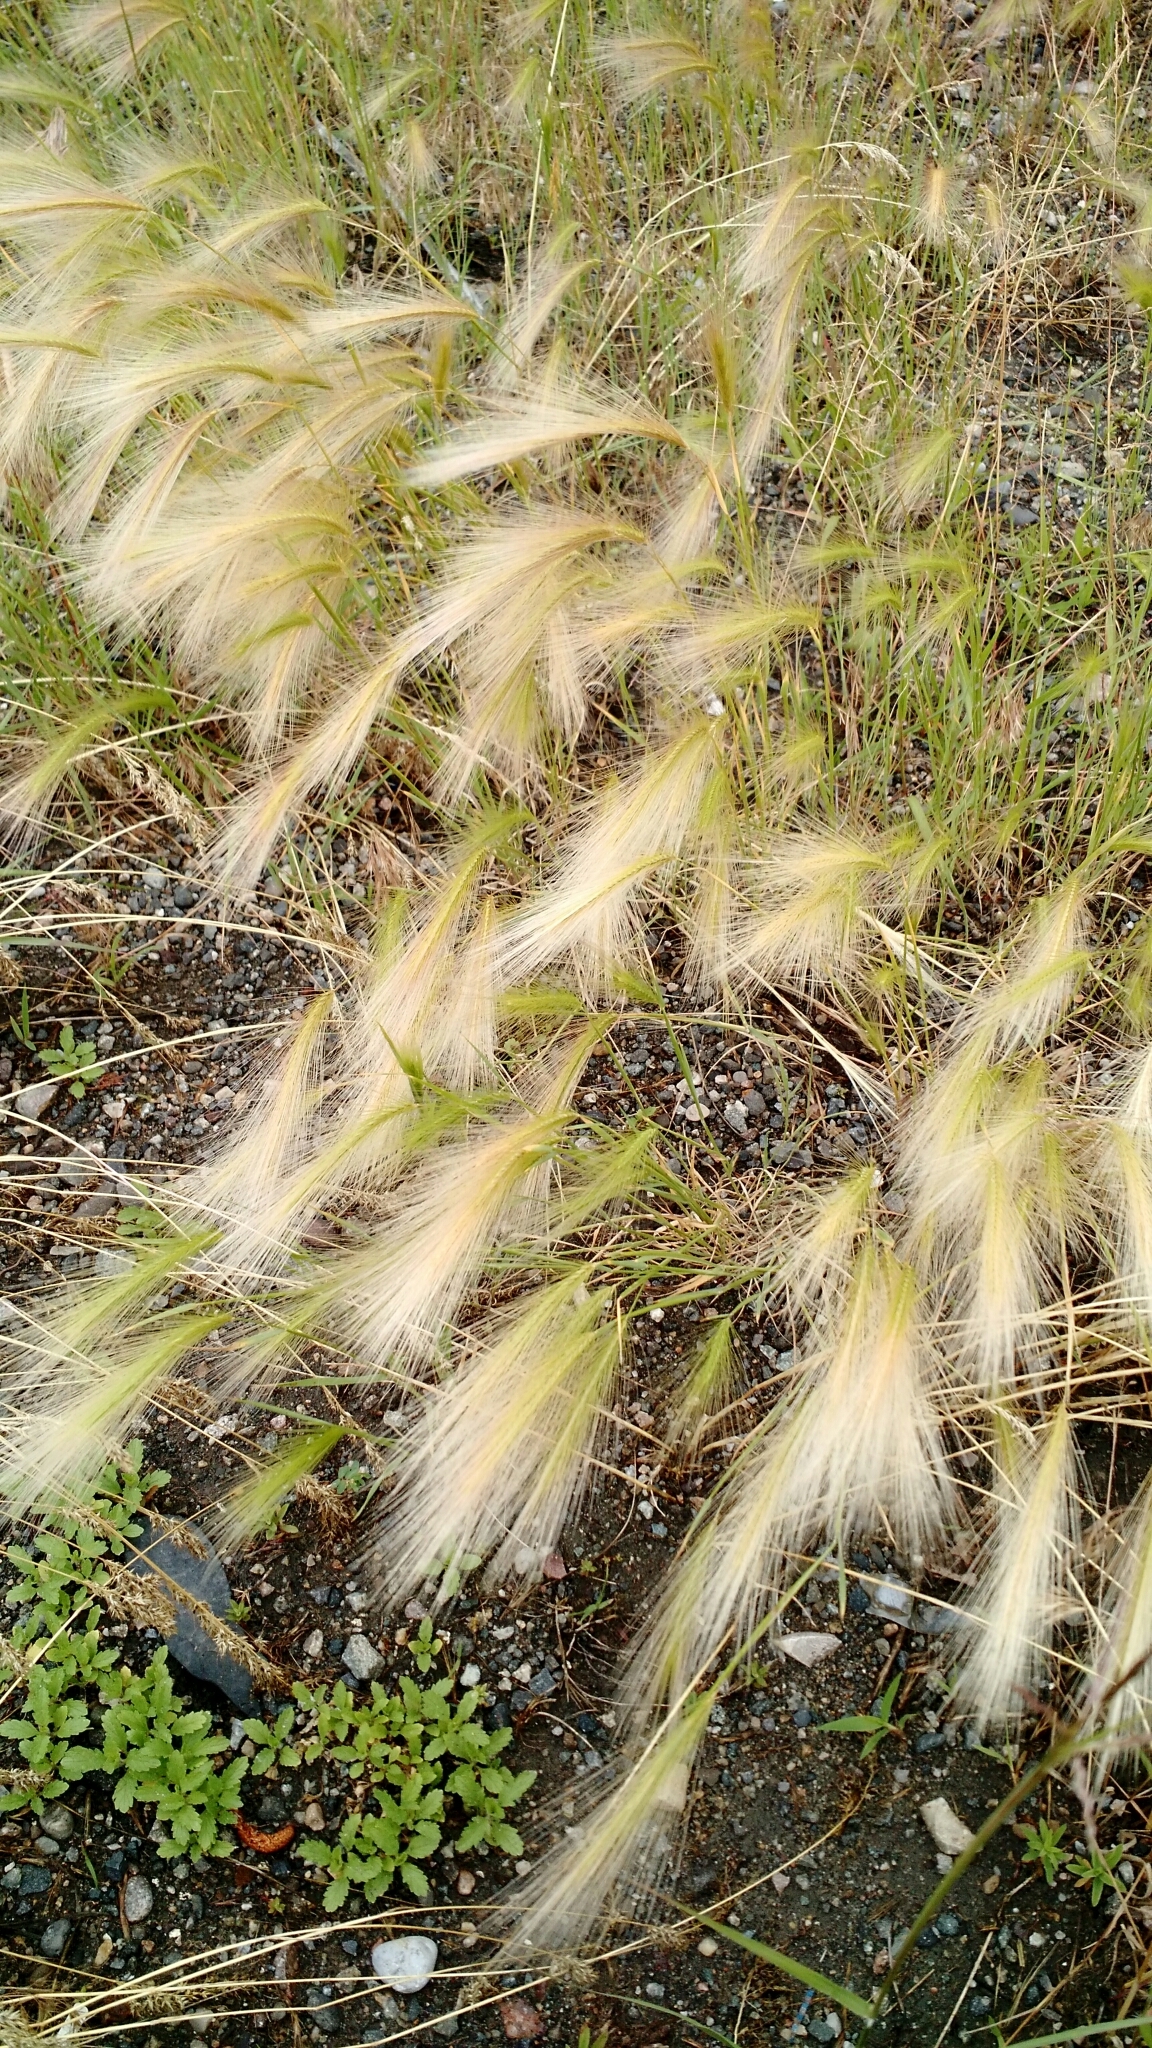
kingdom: Plantae
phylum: Tracheophyta
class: Liliopsida
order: Poales
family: Poaceae
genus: Hordeum
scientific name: Hordeum jubatum
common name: Foxtail barley
